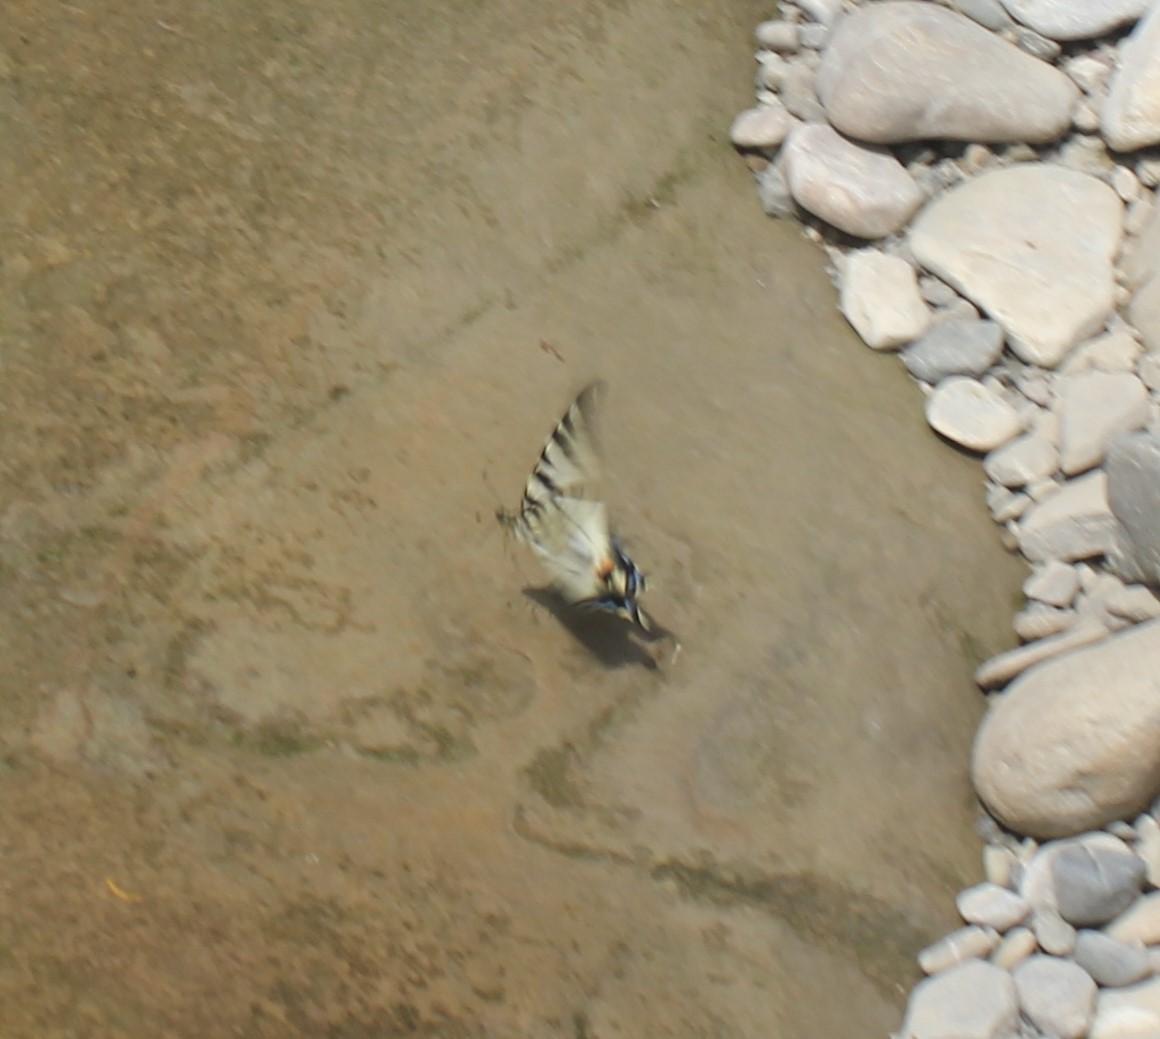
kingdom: Animalia
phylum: Arthropoda
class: Insecta
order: Lepidoptera
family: Papilionidae
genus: Iphiclides
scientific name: Iphiclides podalirius
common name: Scarce swallowtail
